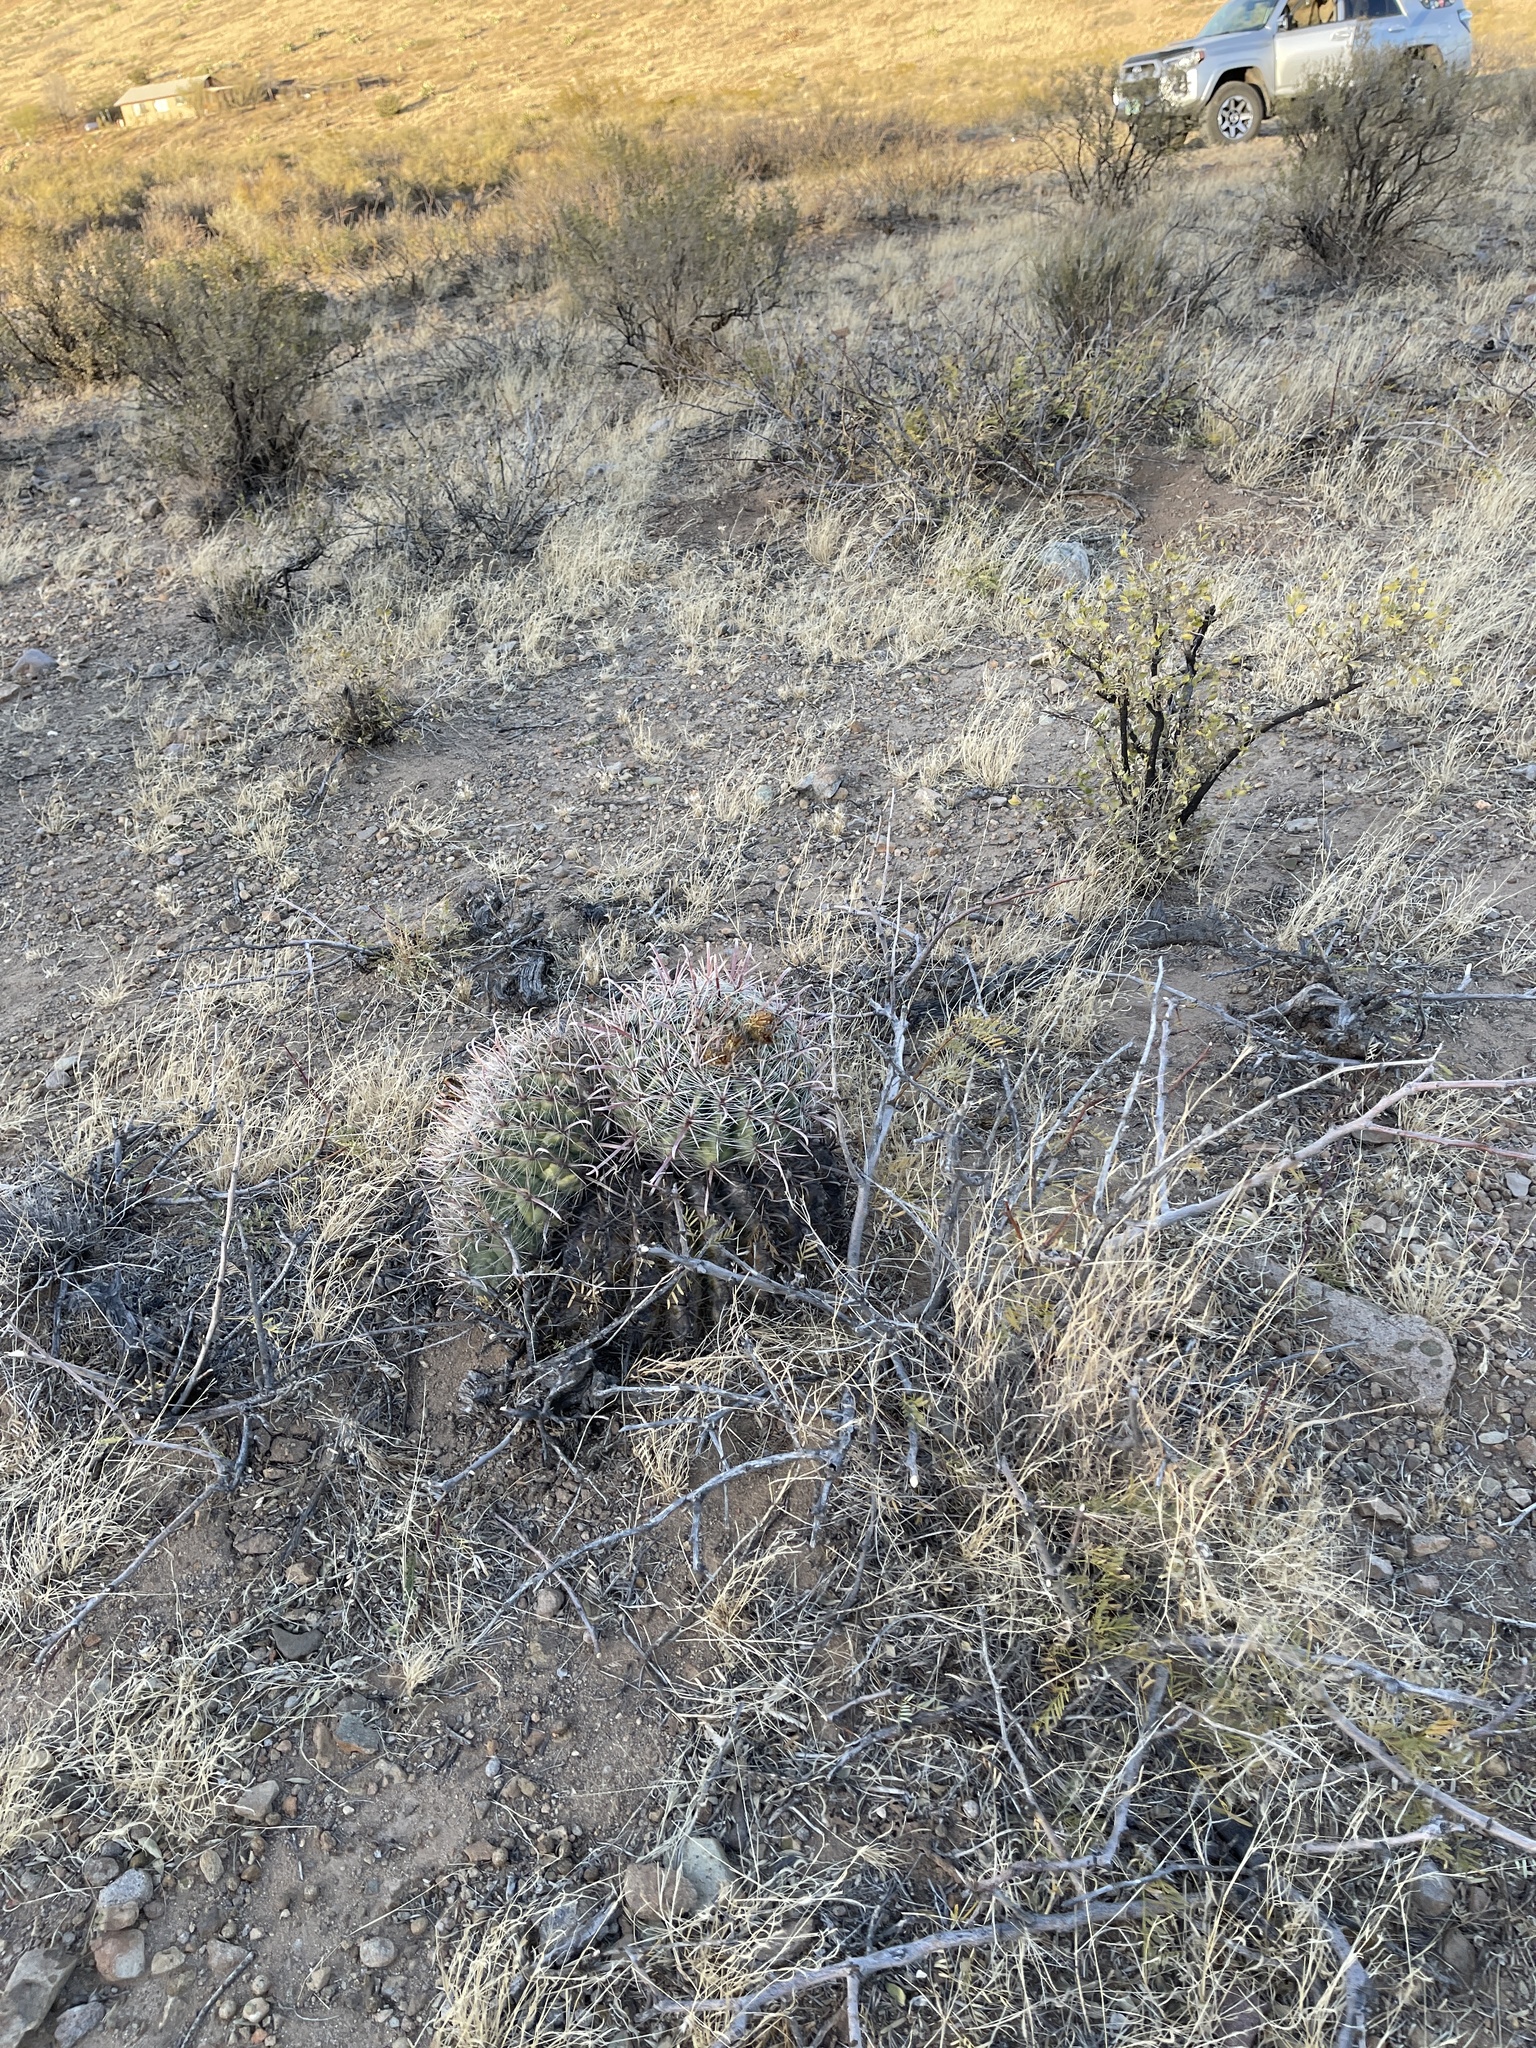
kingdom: Plantae
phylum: Tracheophyta
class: Magnoliopsida
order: Caryophyllales
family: Cactaceae
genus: Ferocactus
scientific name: Ferocactus wislizeni
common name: Candy barrel cactus
